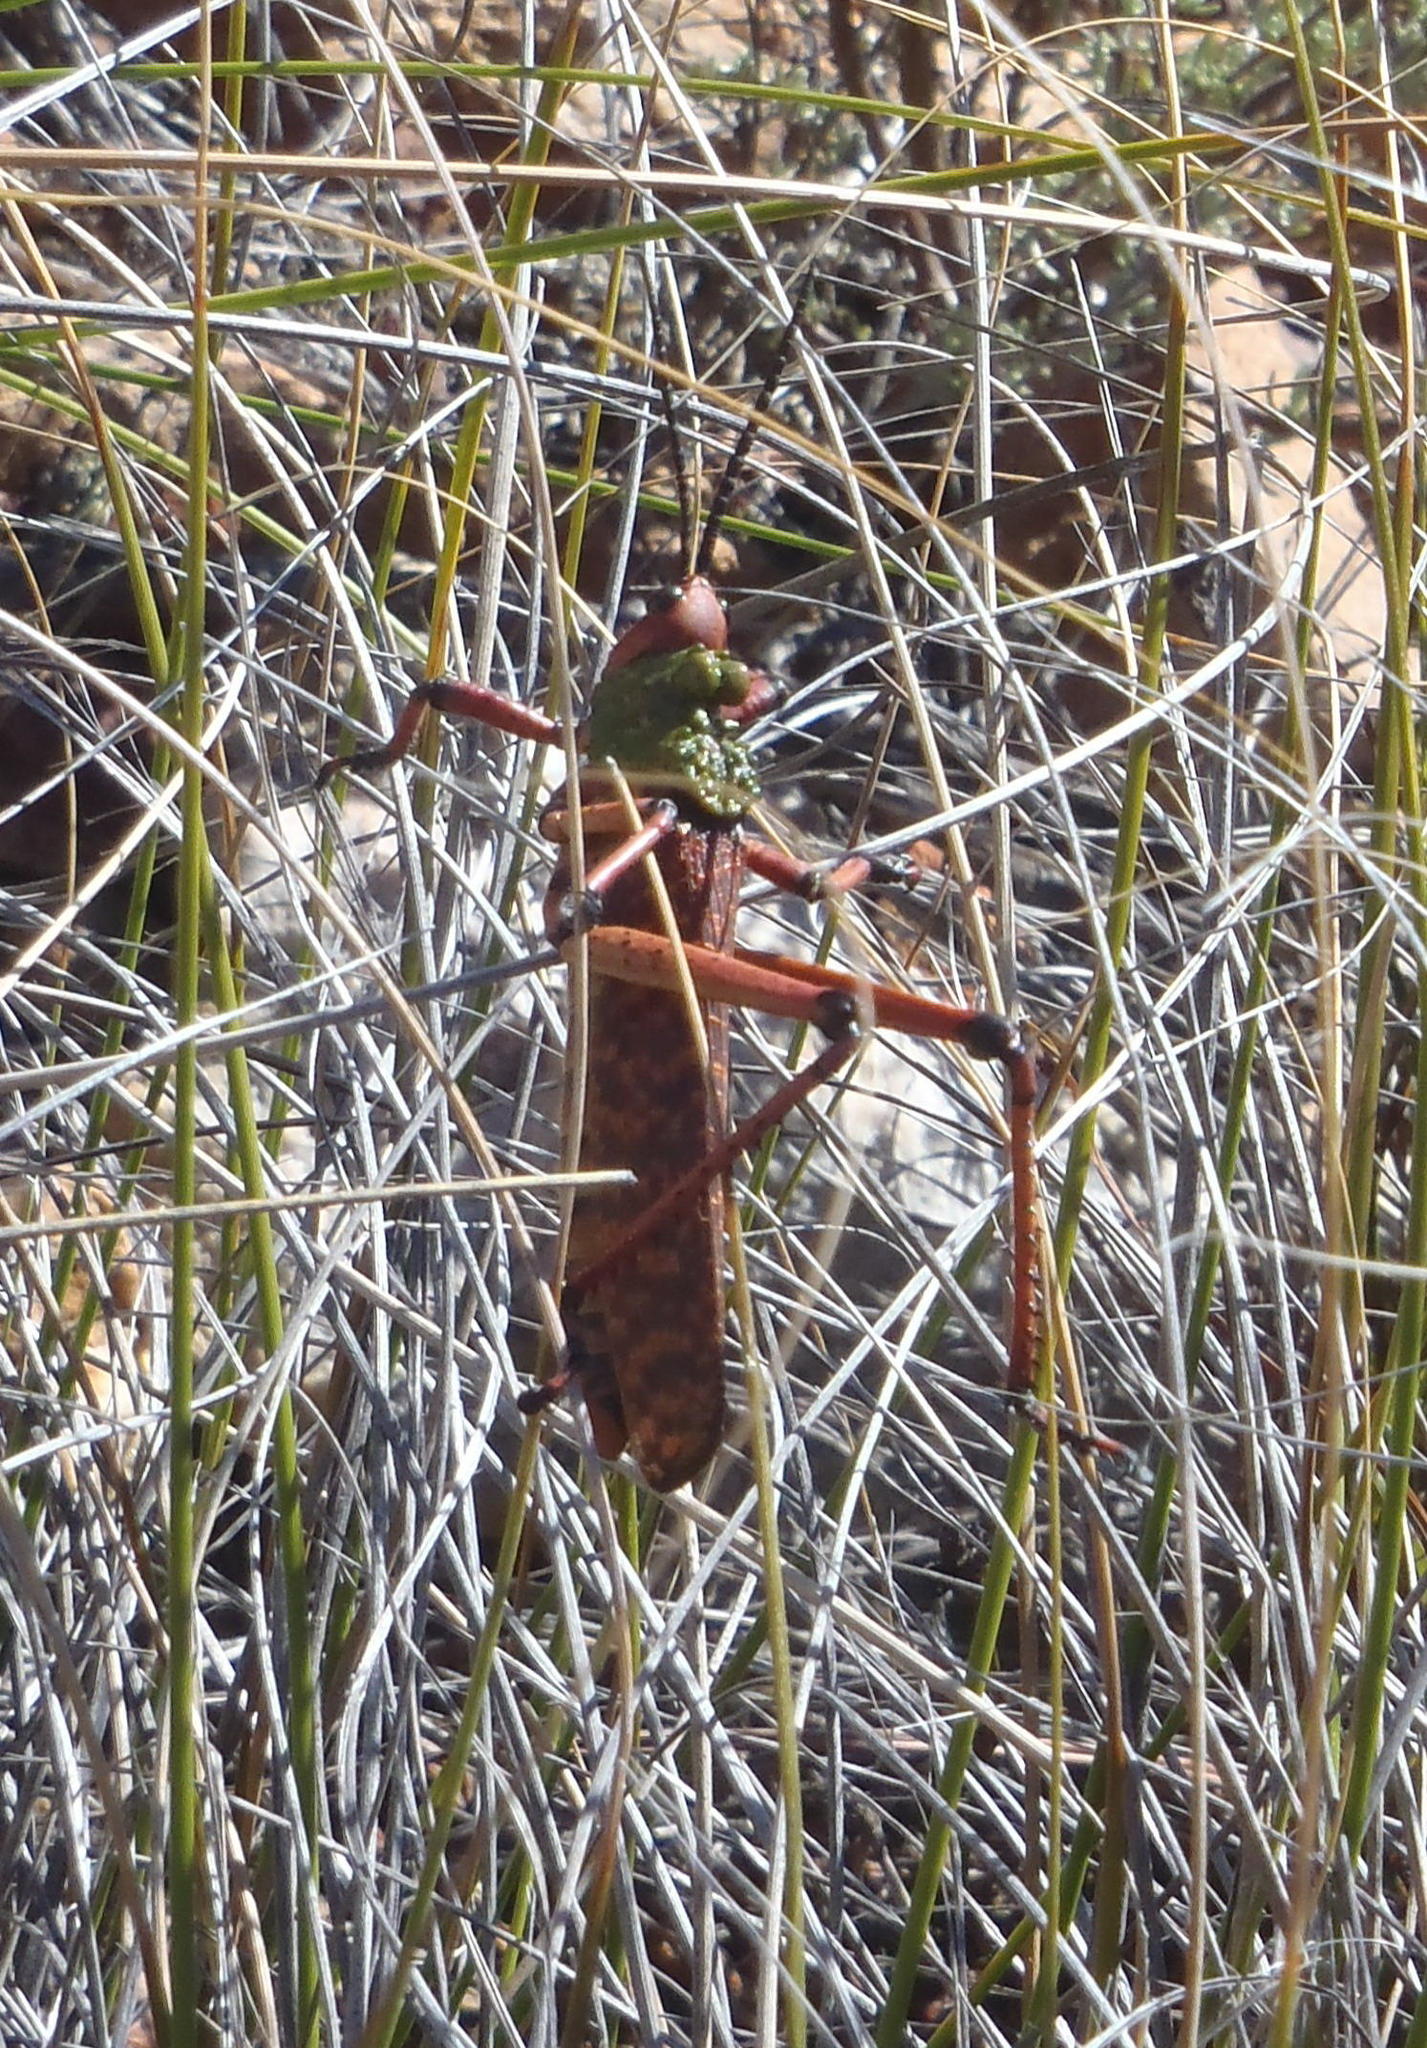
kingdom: Animalia
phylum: Arthropoda
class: Insecta
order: Orthoptera
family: Pyrgomorphidae
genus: Phymateus
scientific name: Phymateus leprosus
